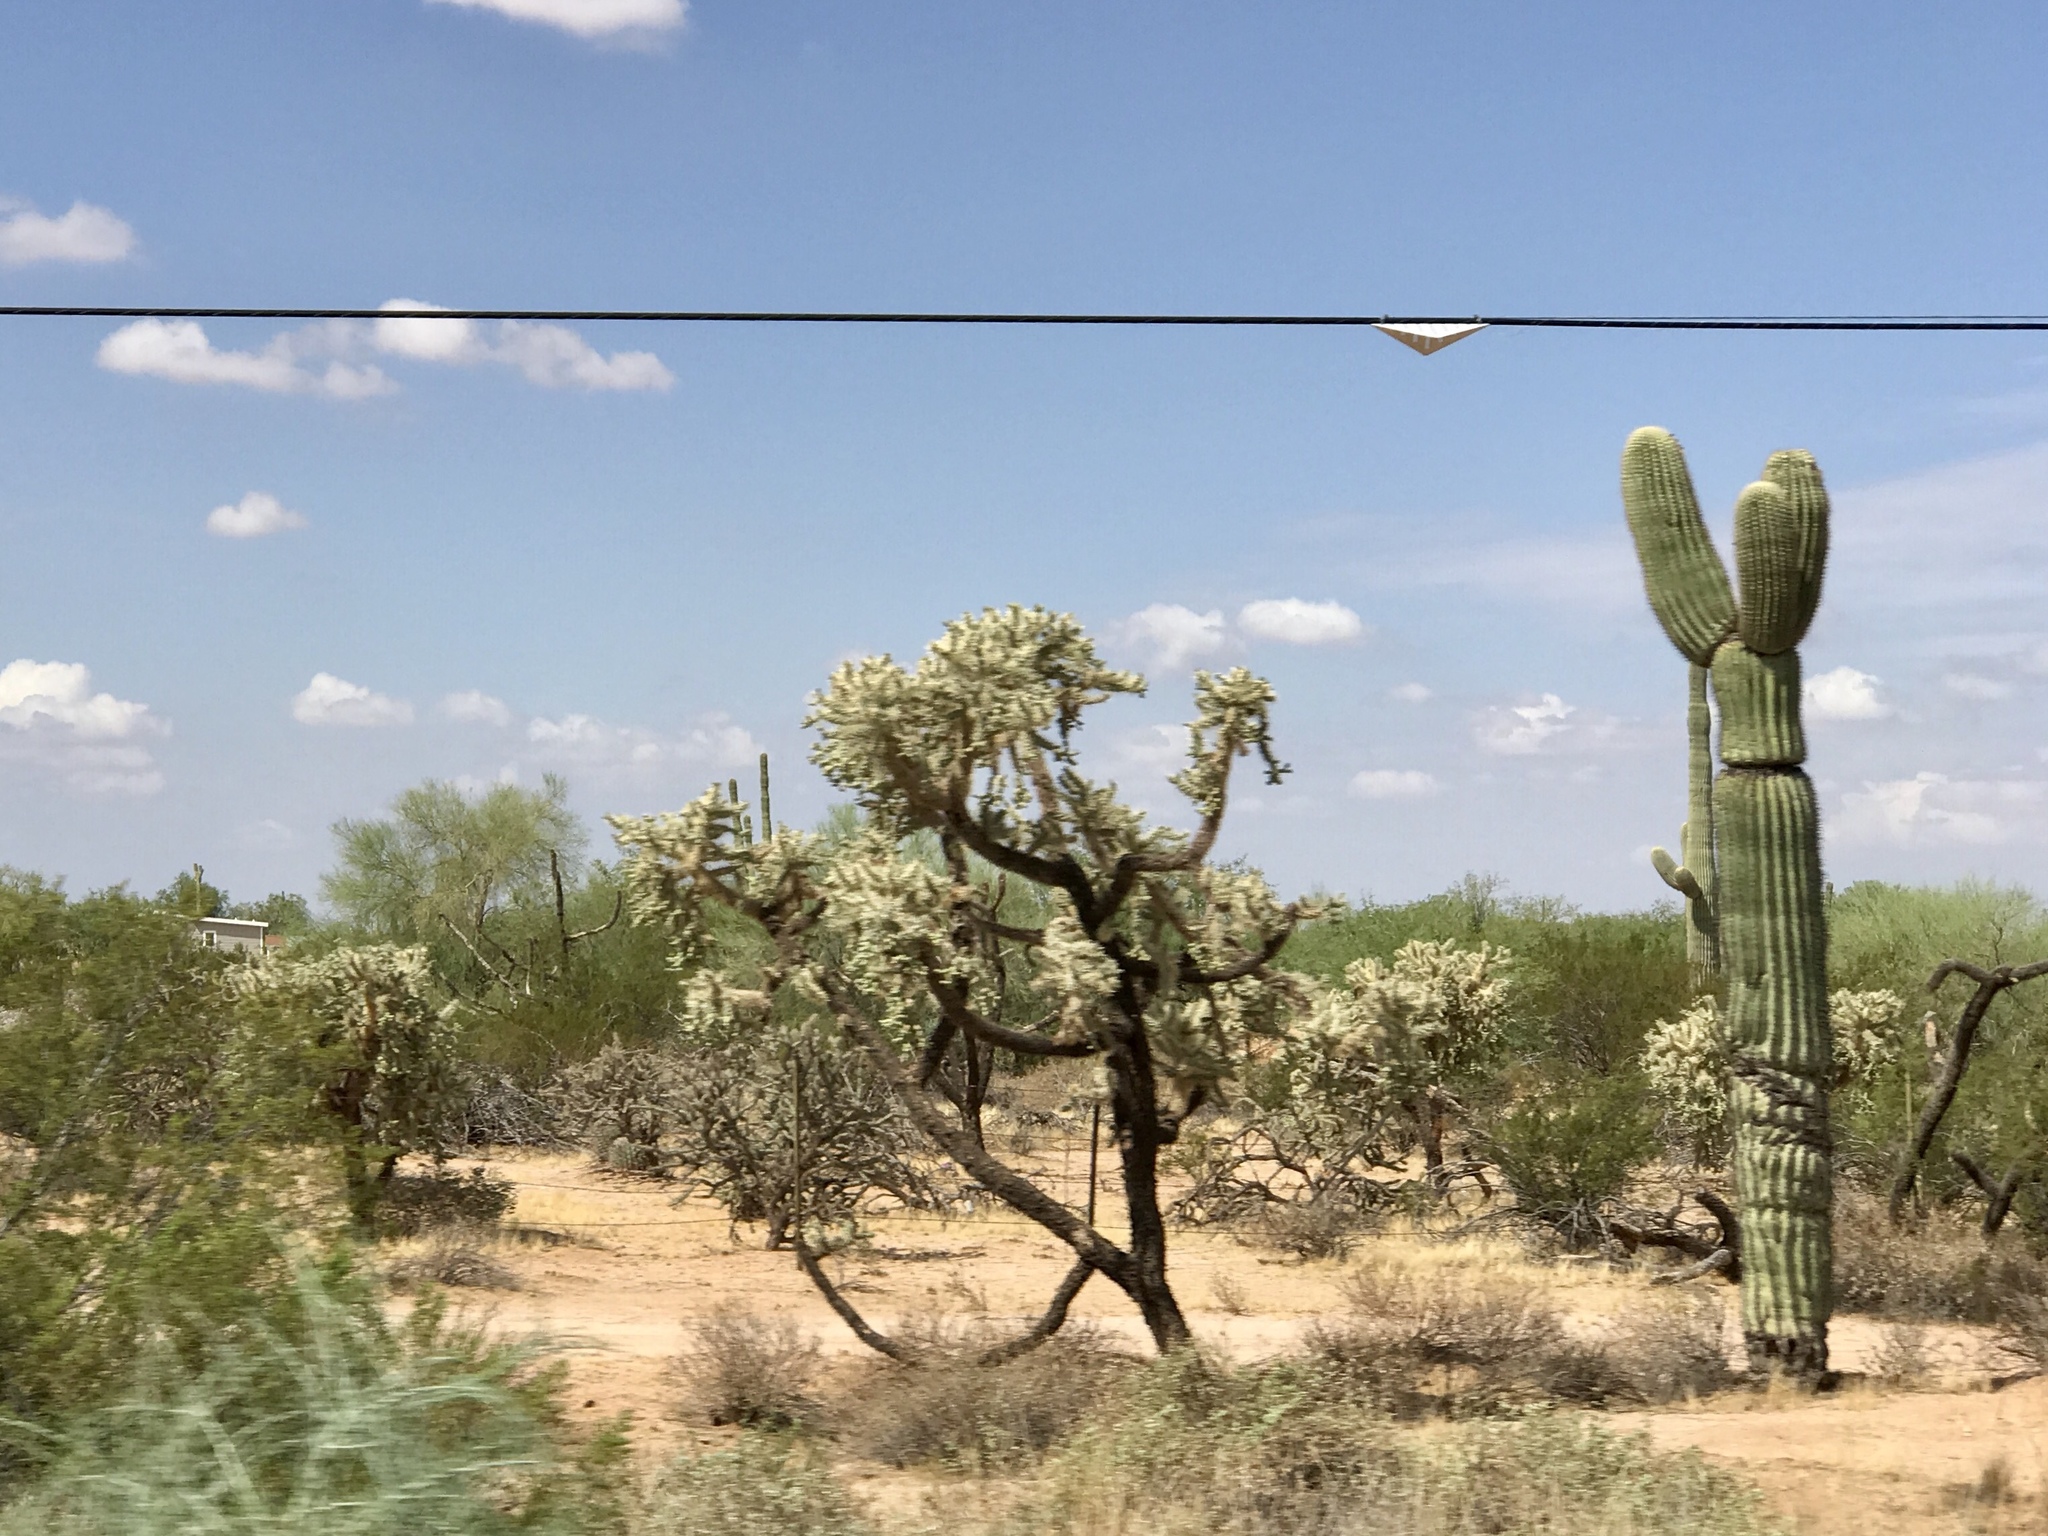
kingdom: Plantae
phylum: Tracheophyta
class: Magnoliopsida
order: Caryophyllales
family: Cactaceae
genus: Cylindropuntia
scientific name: Cylindropuntia fulgida
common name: Jumping cholla
